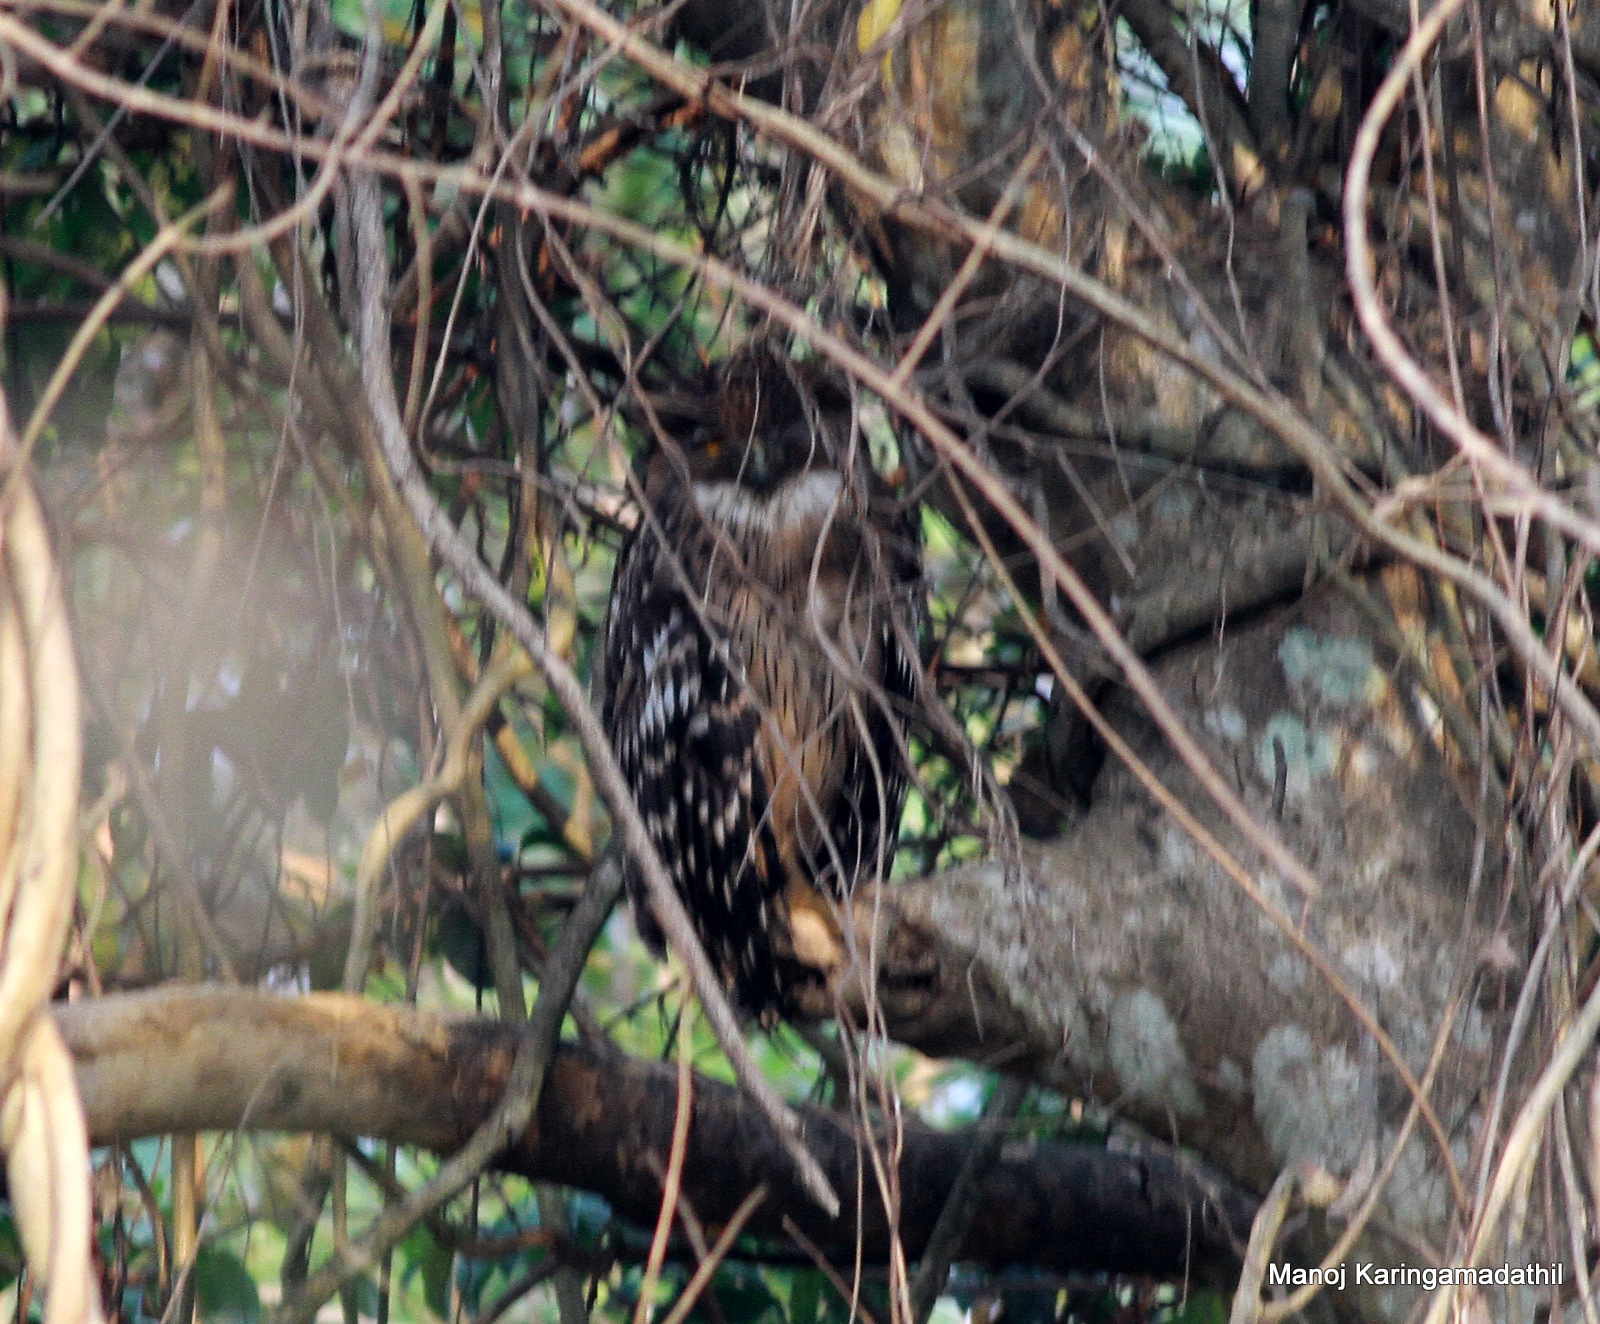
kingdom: Animalia
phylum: Chordata
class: Aves
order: Strigiformes
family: Strigidae
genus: Ketupa
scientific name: Ketupa zeylonensis
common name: Brown fish owl
